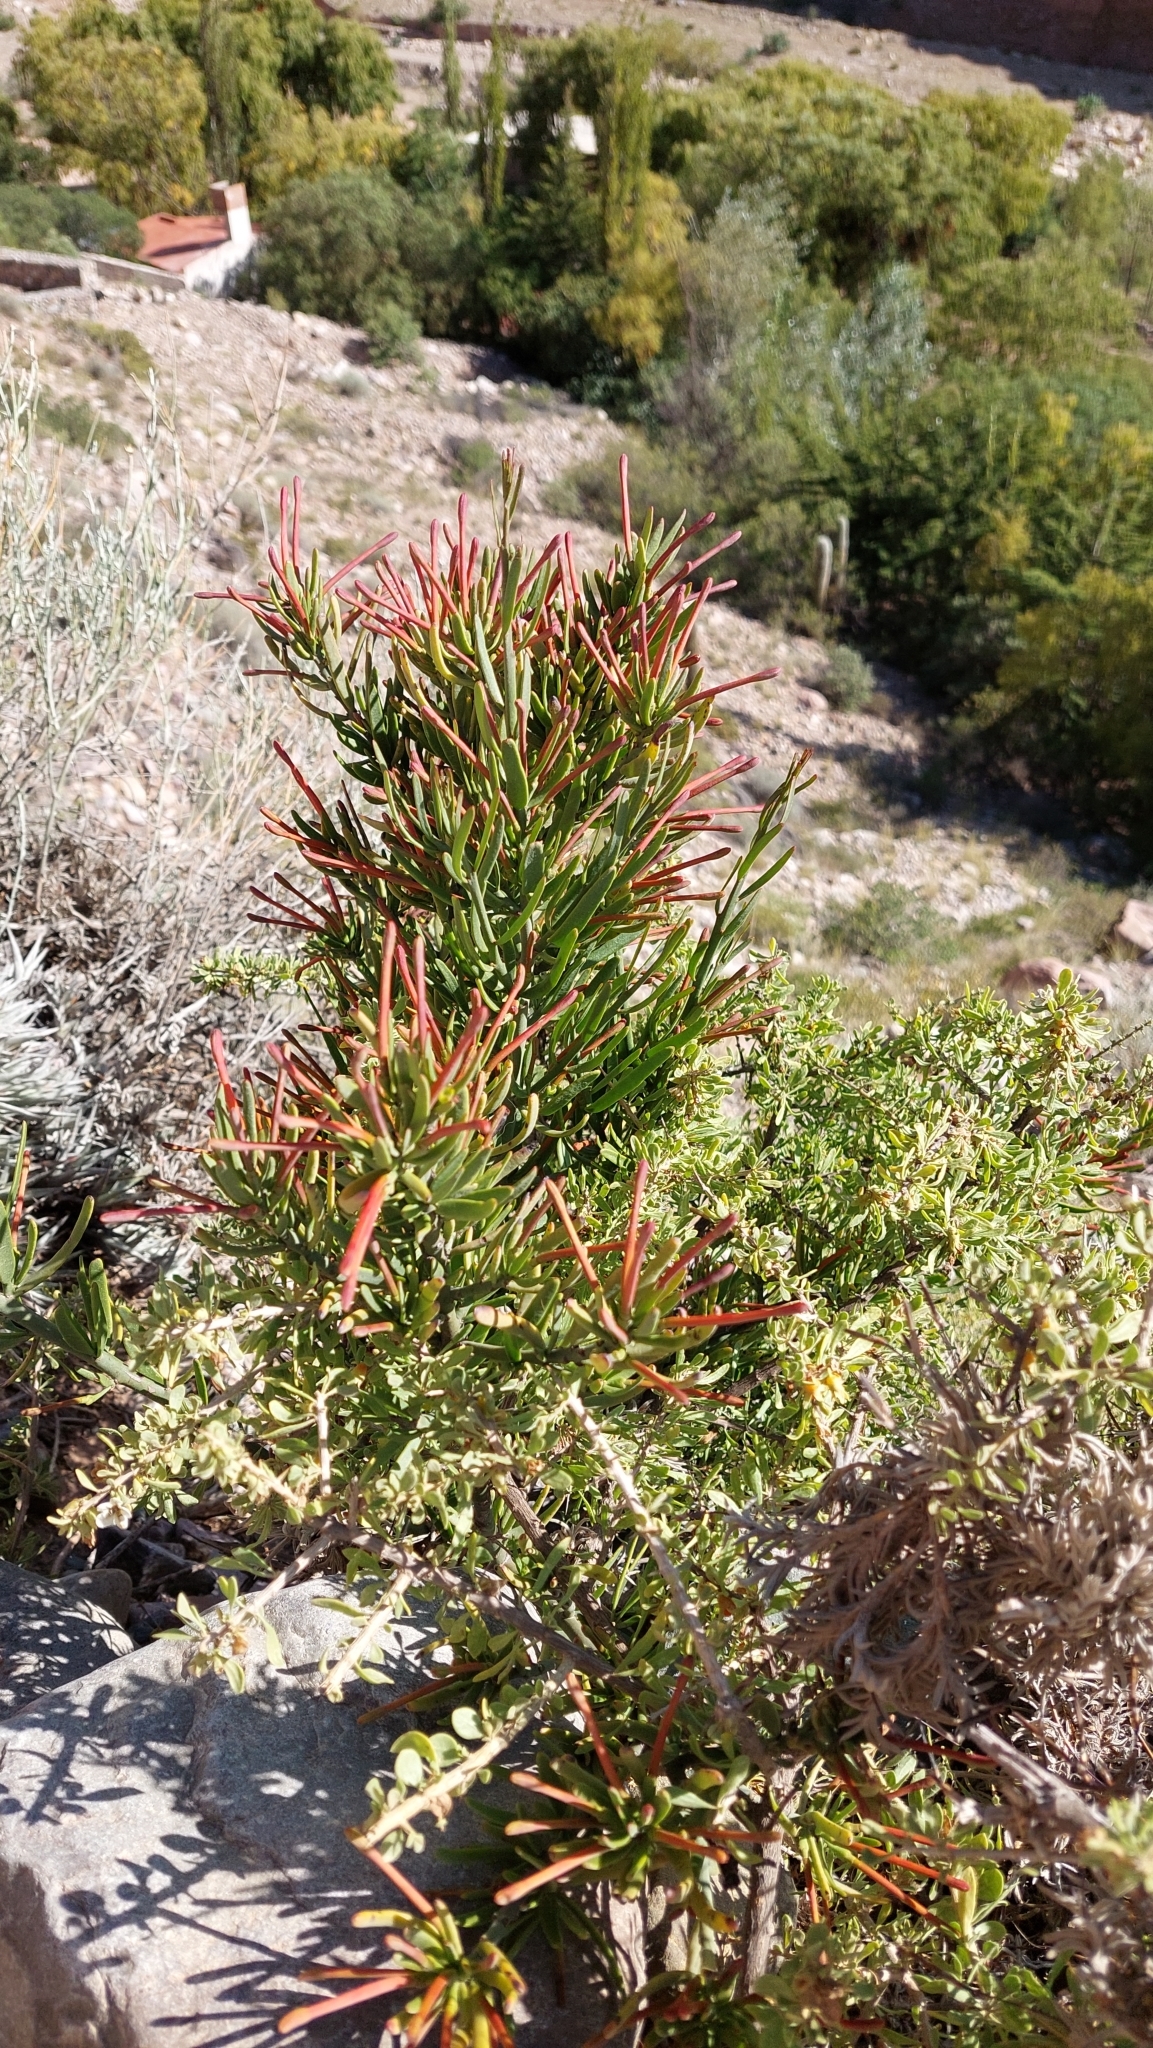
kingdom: Plantae
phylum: Tracheophyta
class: Magnoliopsida
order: Santalales
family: Loranthaceae
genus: Ligaria
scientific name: Ligaria cuneifolia
